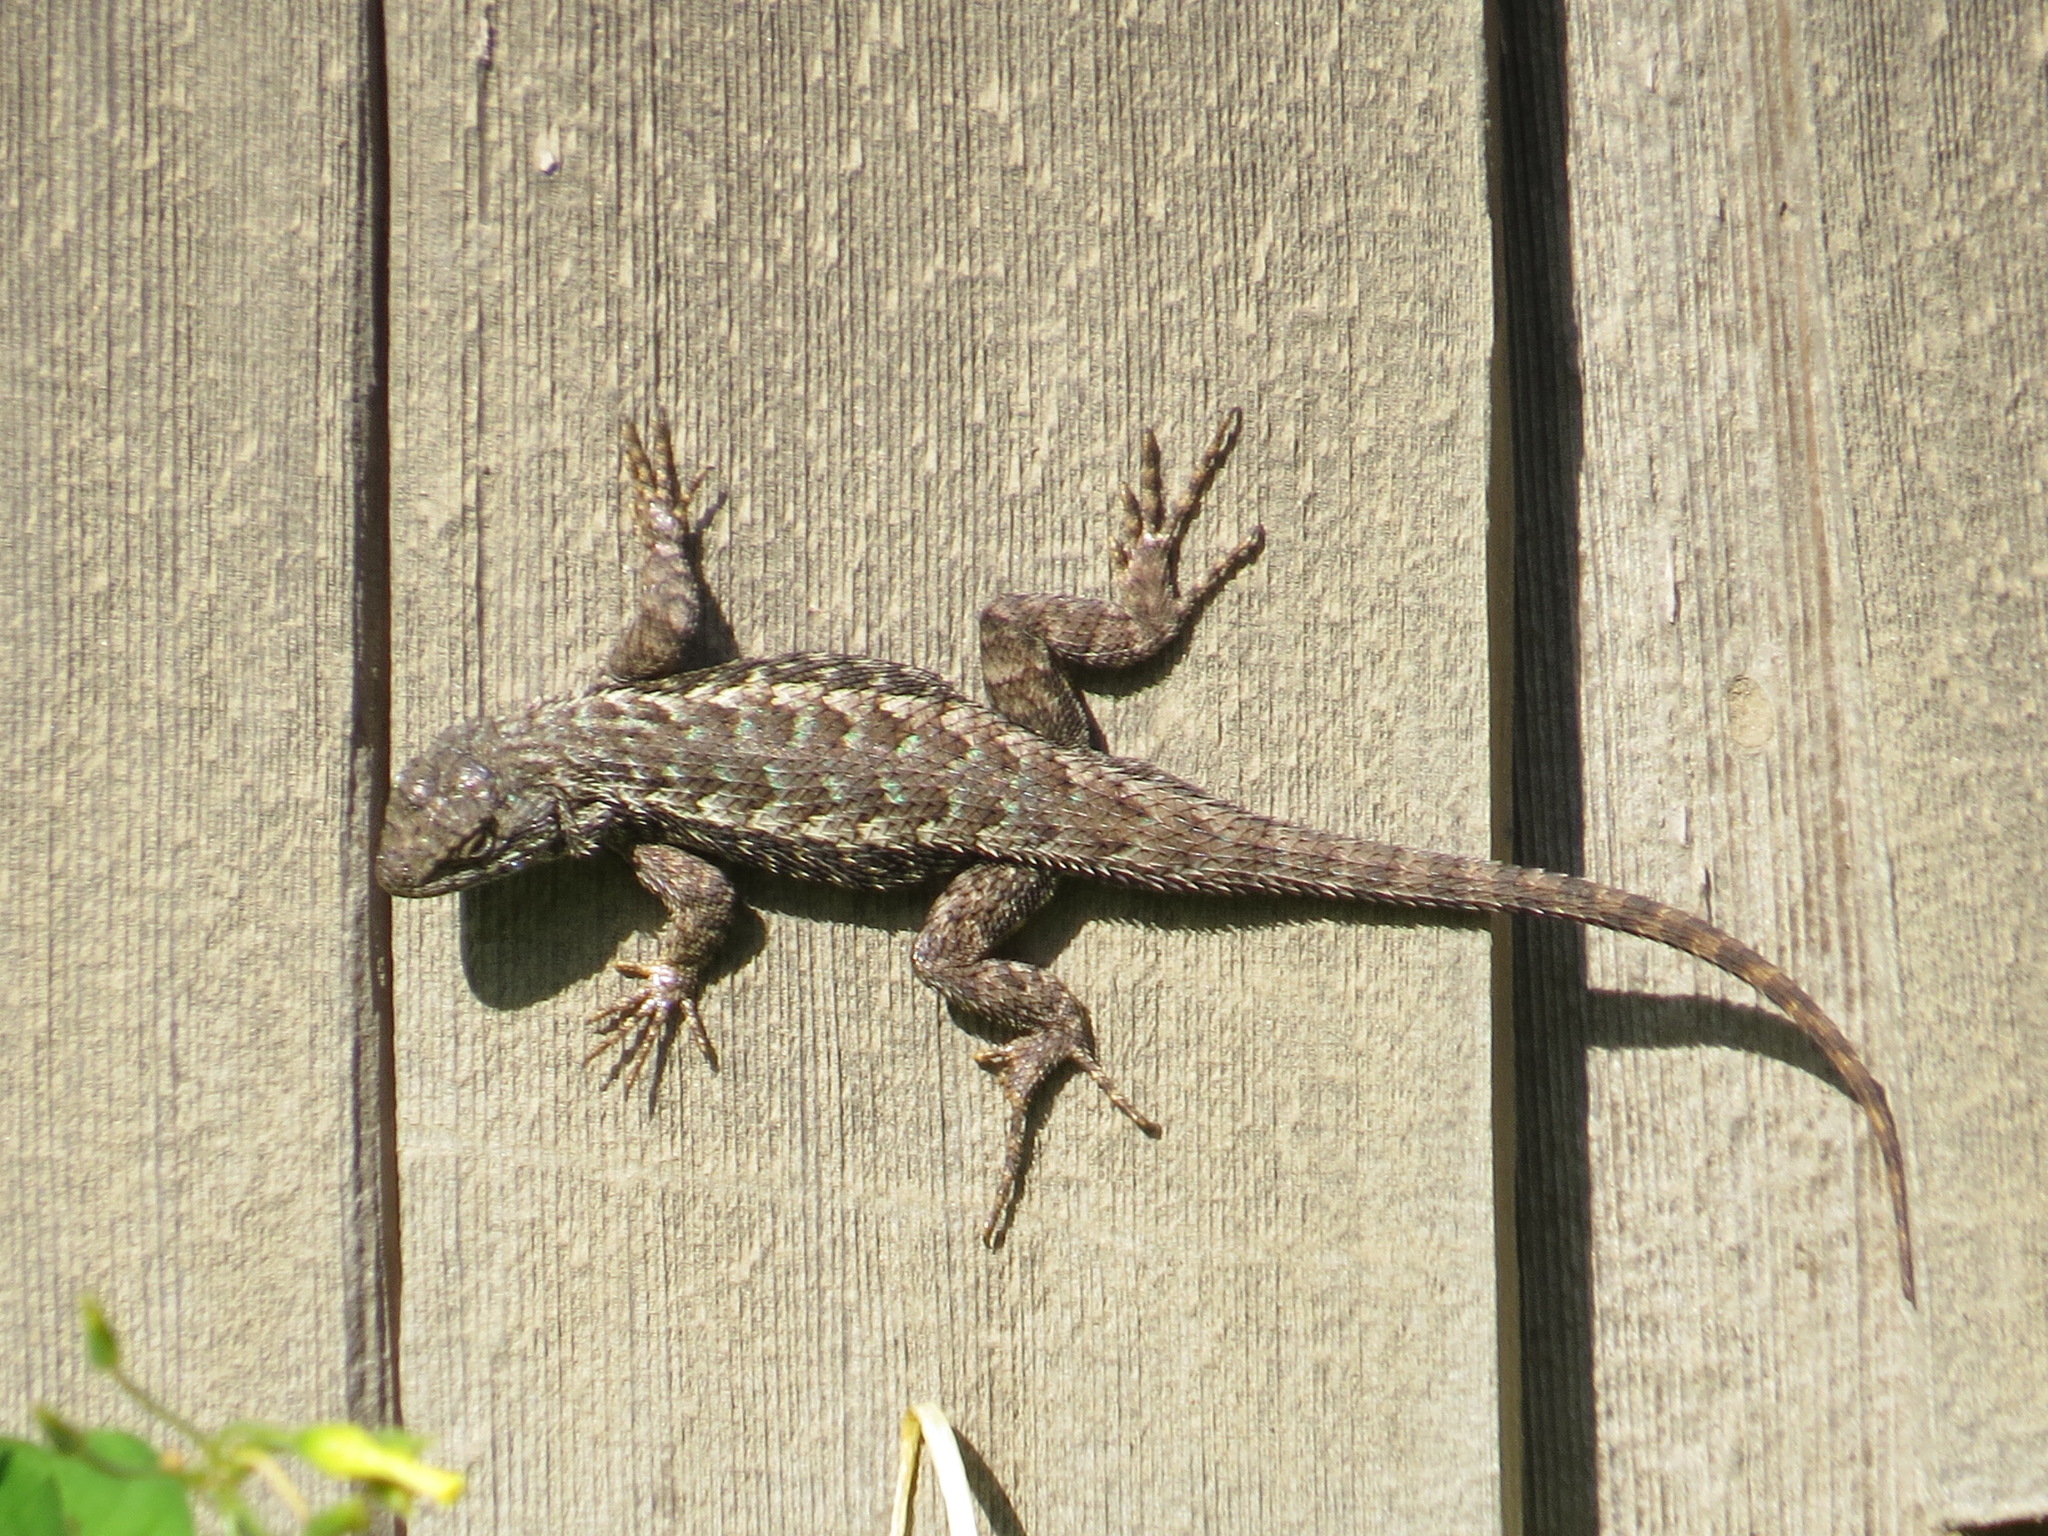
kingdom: Animalia
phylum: Chordata
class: Squamata
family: Phrynosomatidae
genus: Sceloporus
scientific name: Sceloporus occidentalis
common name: Western fence lizard
